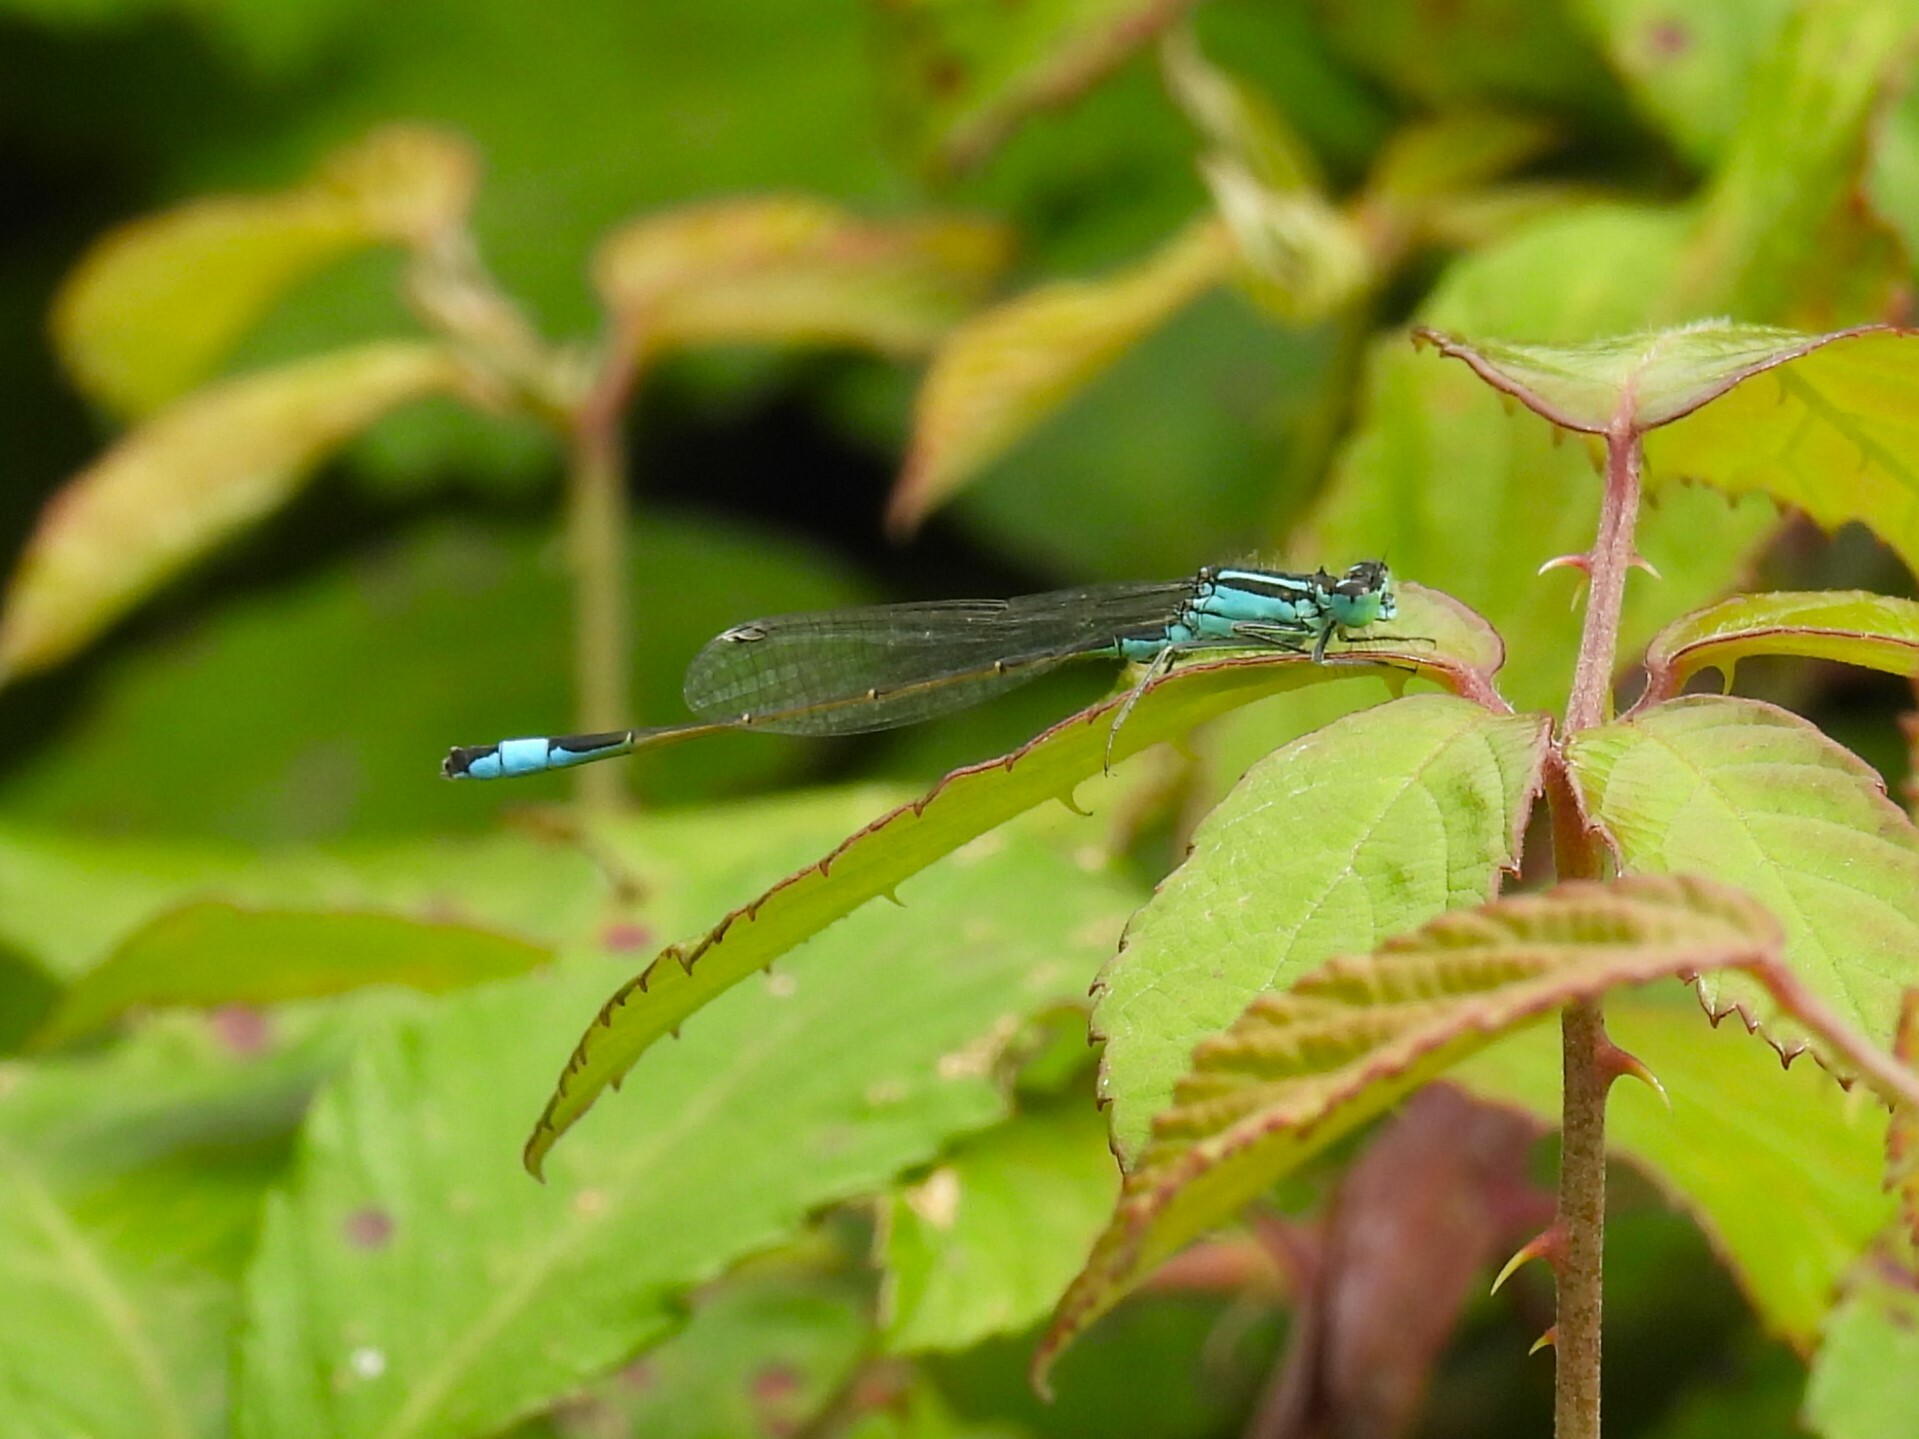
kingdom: Animalia
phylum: Arthropoda
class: Insecta
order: Odonata
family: Coenagrionidae
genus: Ischnura
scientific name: Ischnura elegans
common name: Blue-tailed damselfly
